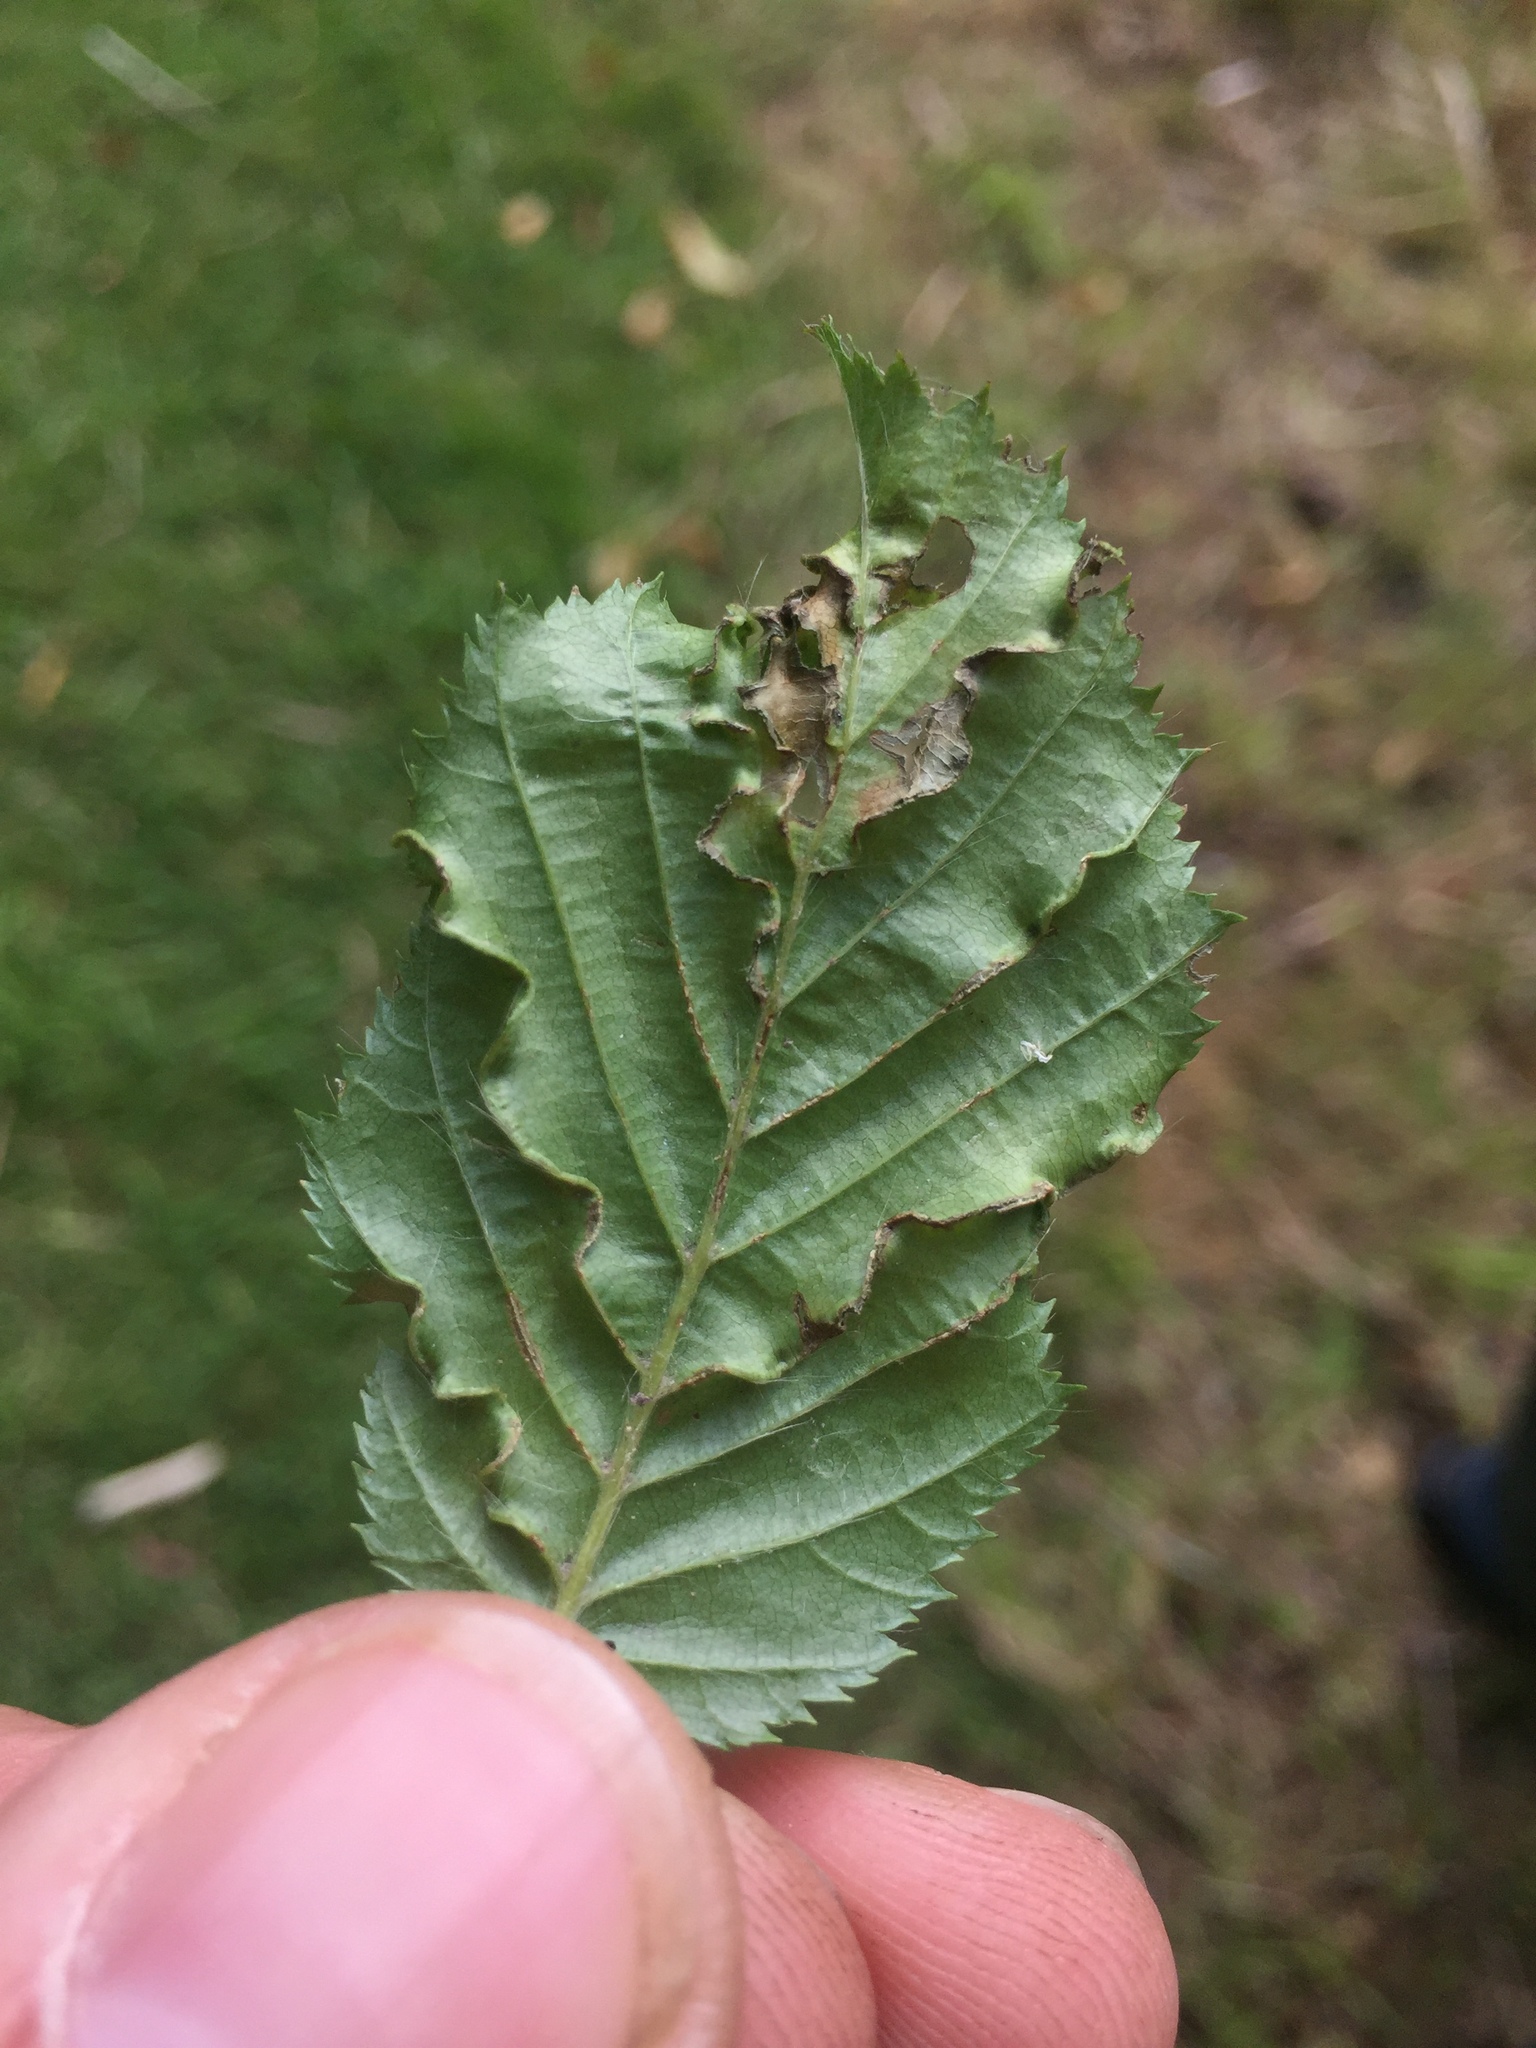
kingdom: Animalia
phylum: Arthropoda
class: Arachnida
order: Trombidiformes
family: Eriophyidae
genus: Aculops
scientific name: Aculops macrotrichus
